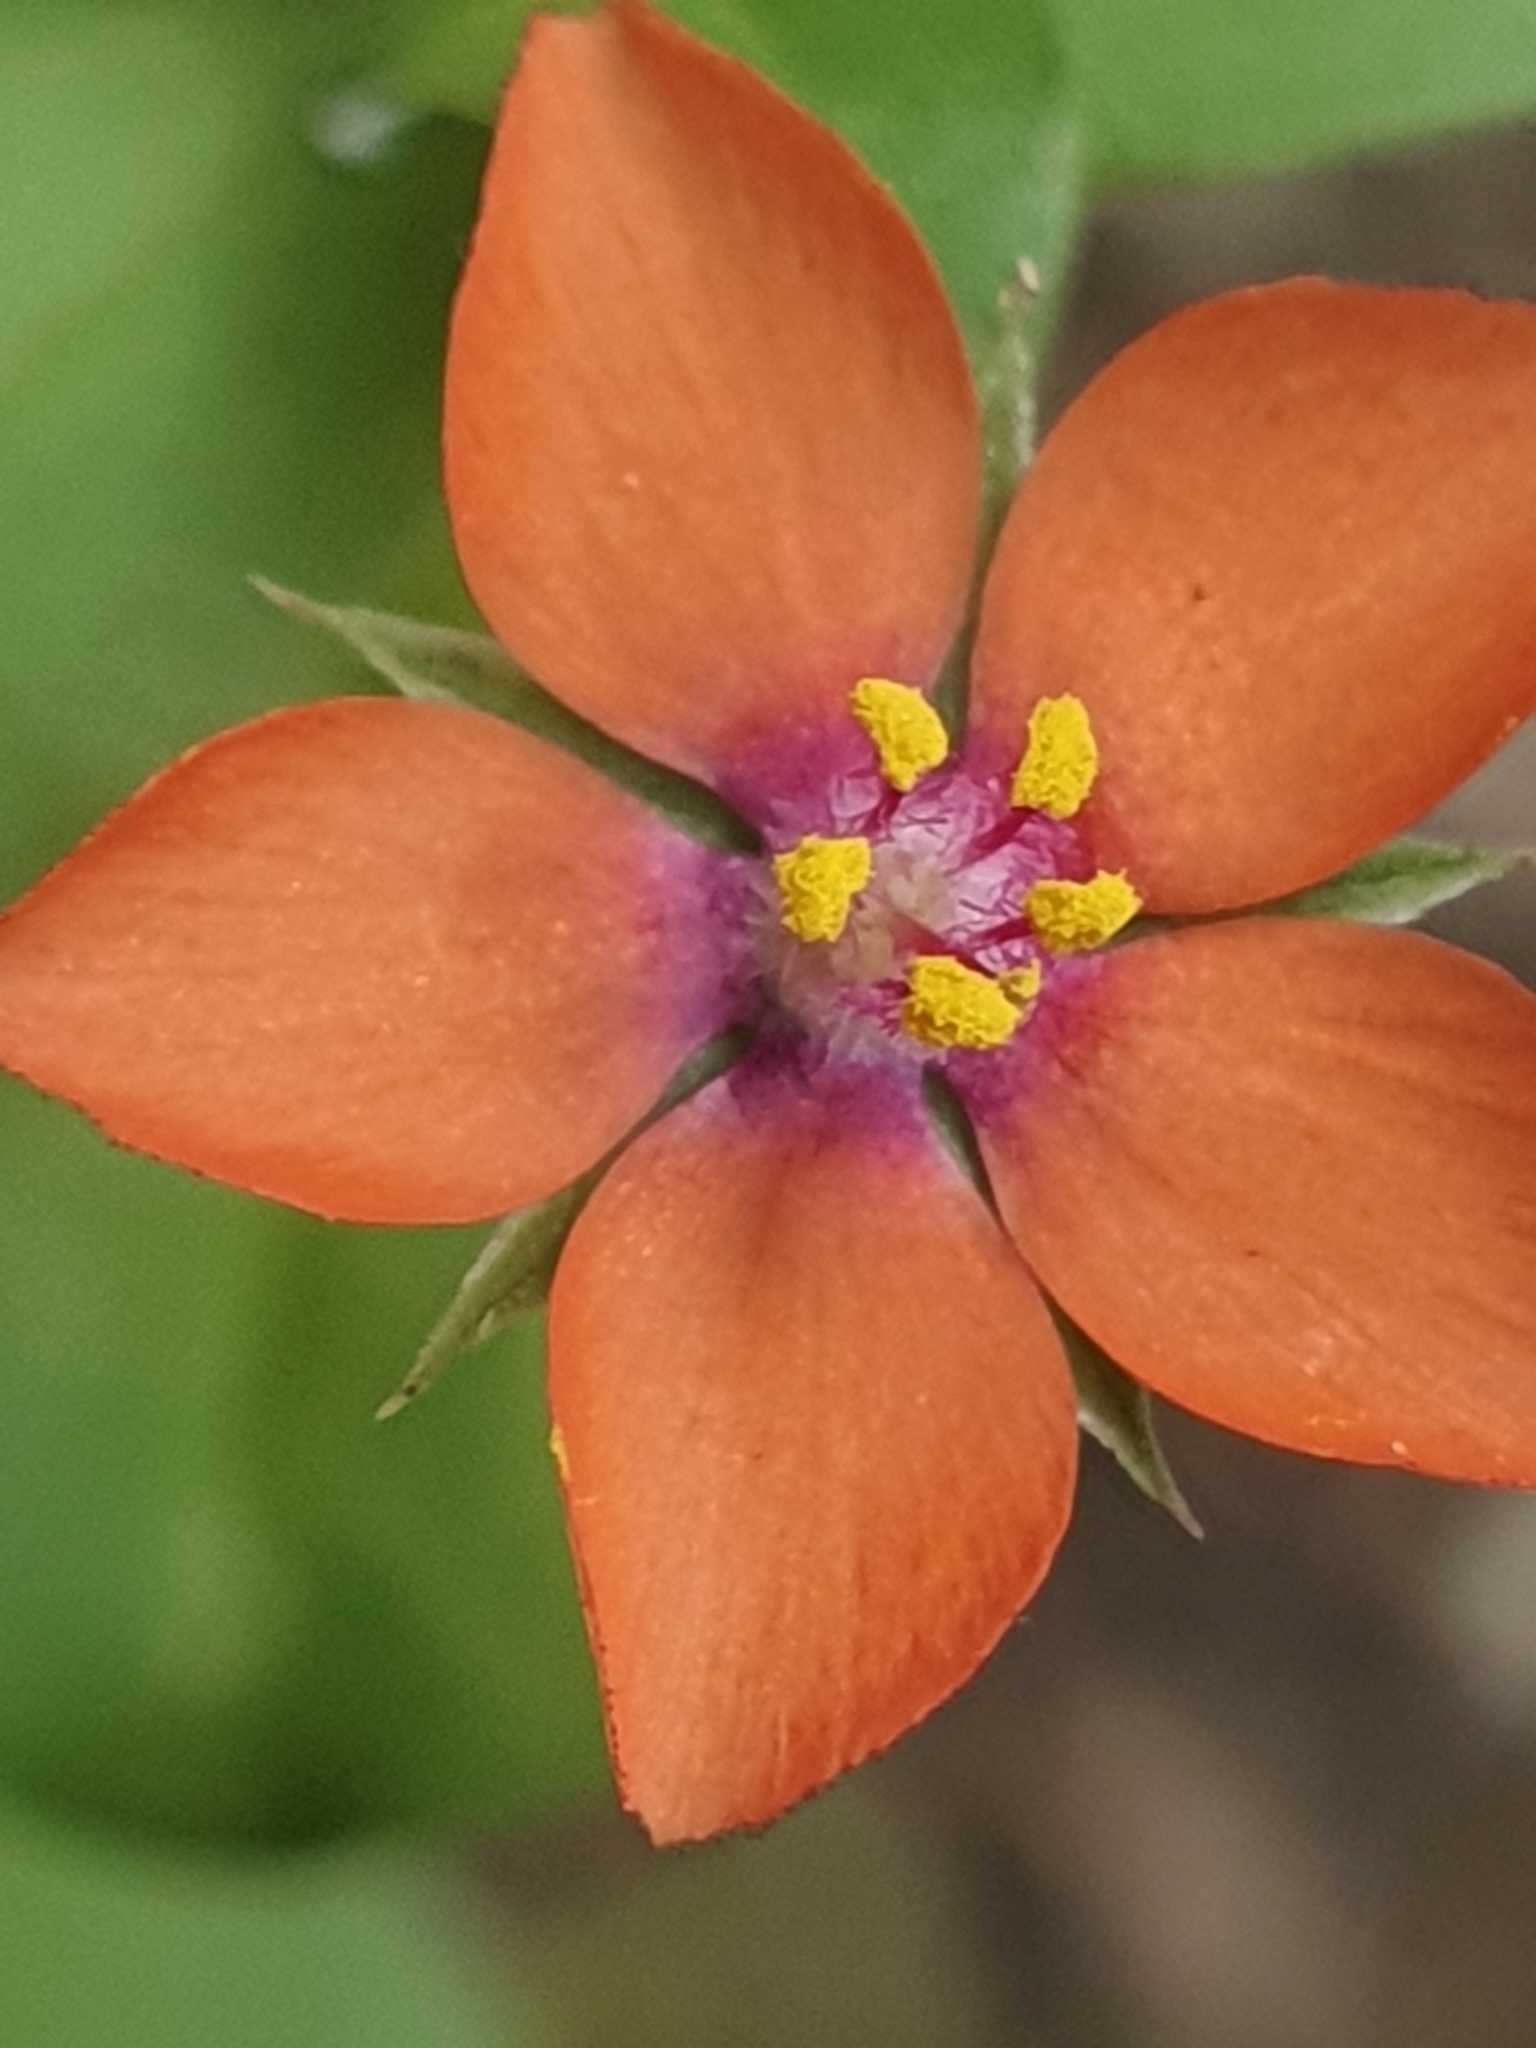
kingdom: Plantae
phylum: Tracheophyta
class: Magnoliopsida
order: Ericales
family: Primulaceae
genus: Lysimachia
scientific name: Lysimachia arvensis
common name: Scarlet pimpernel
